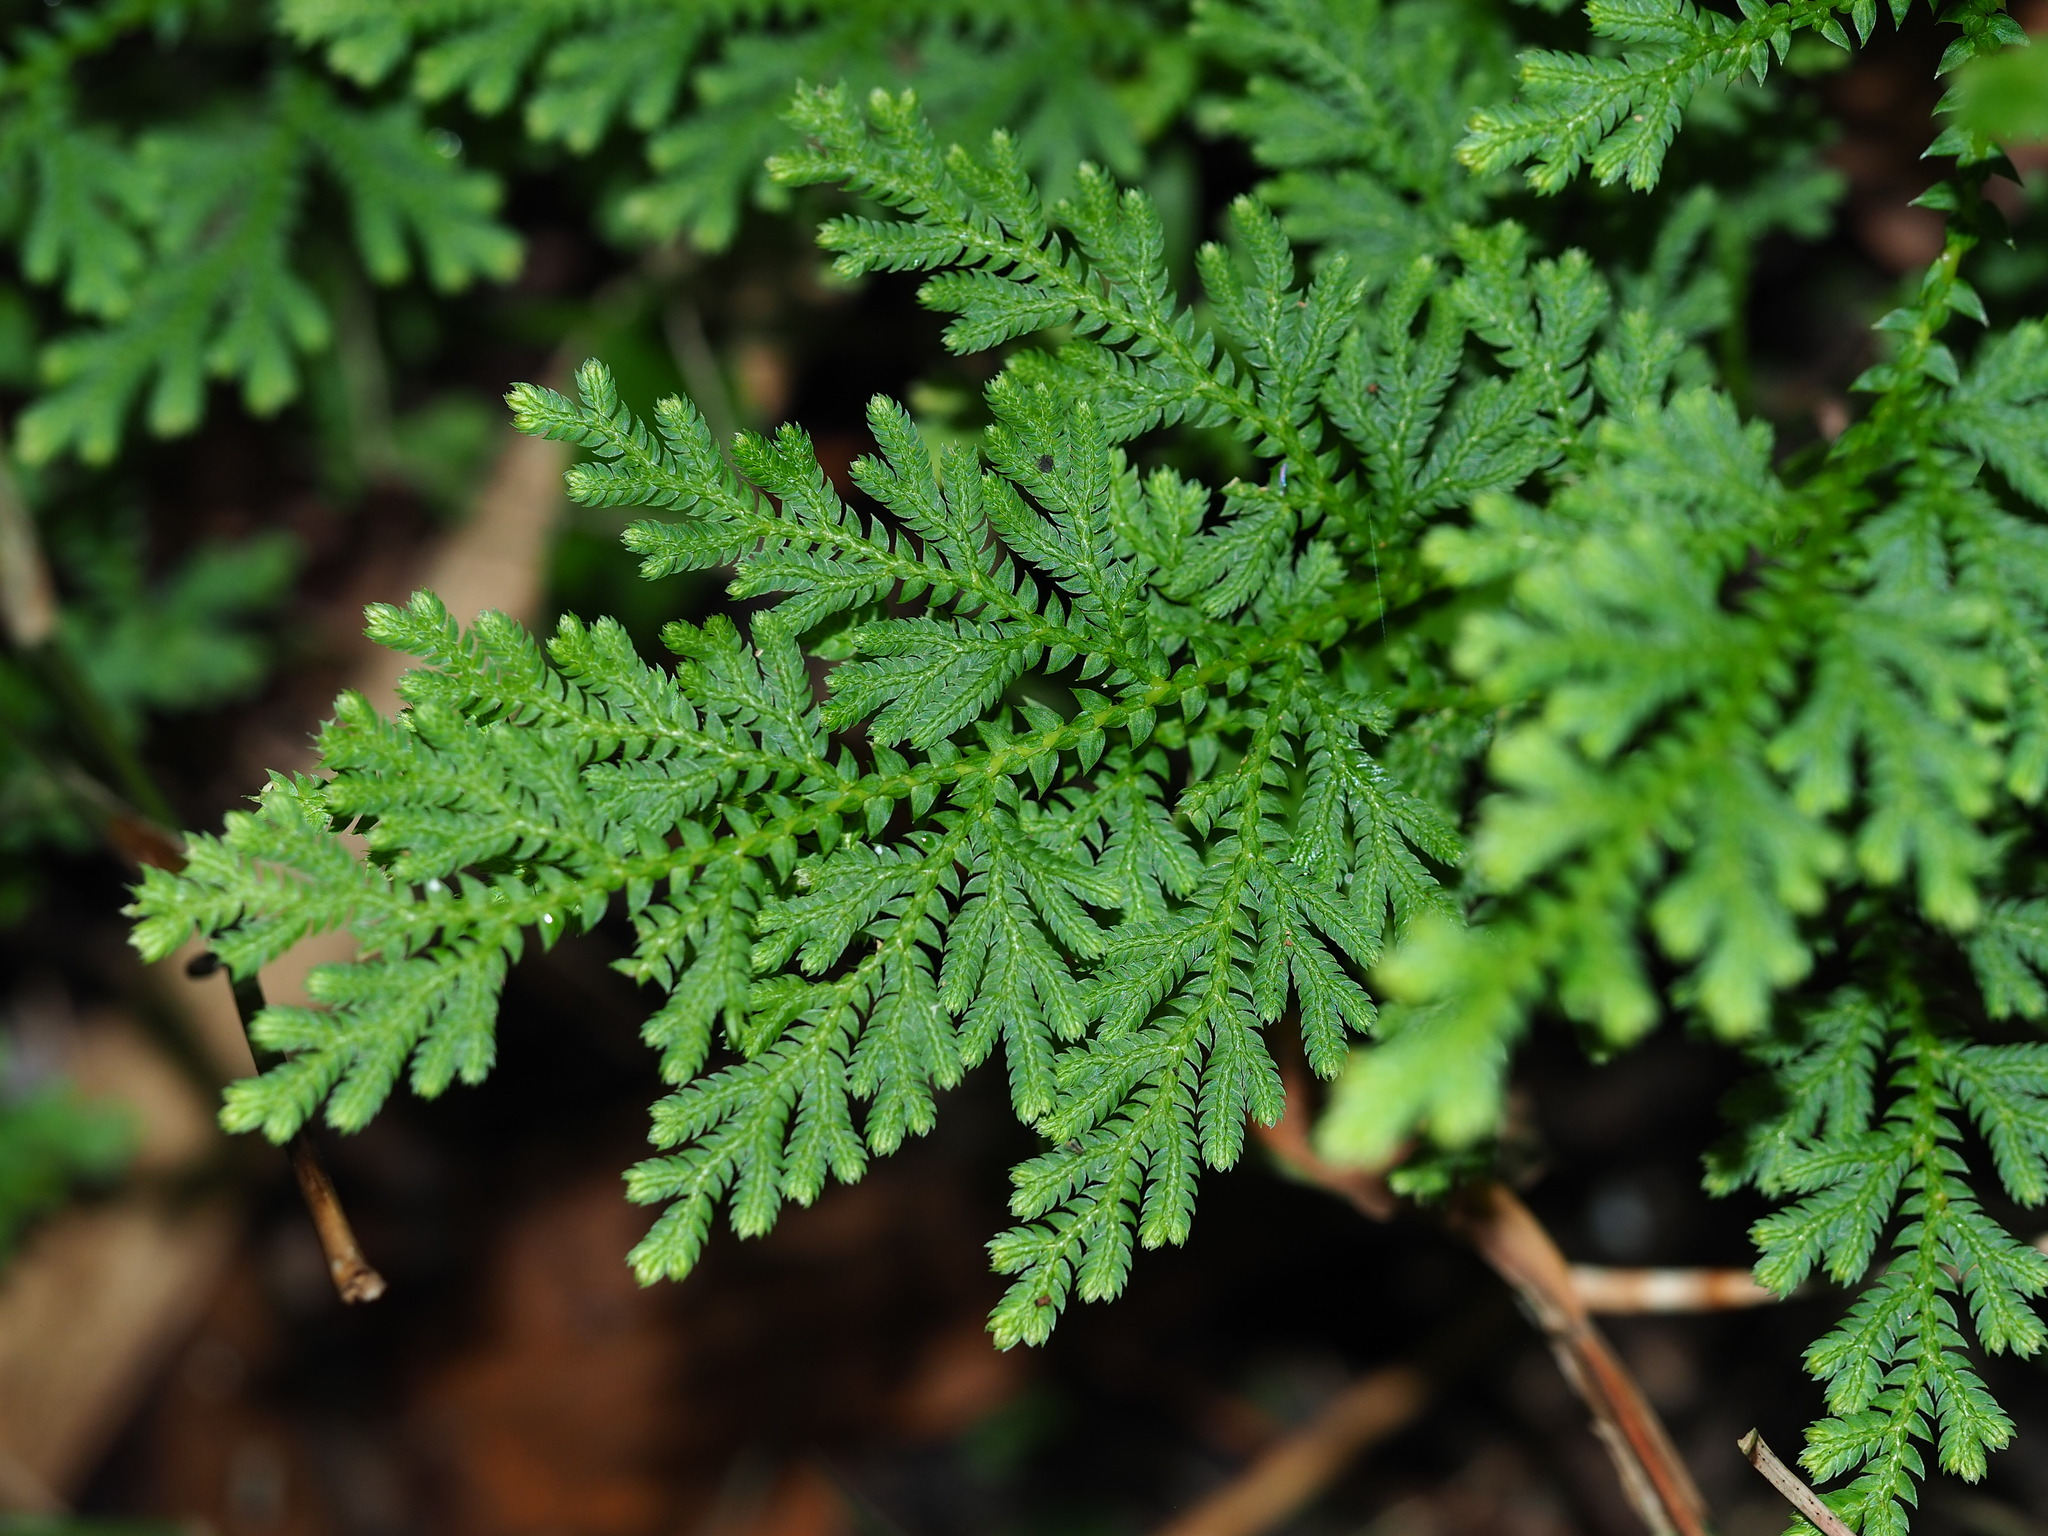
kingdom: Plantae
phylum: Tracheophyta
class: Lycopodiopsida
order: Selaginellales
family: Selaginellaceae
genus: Selaginella
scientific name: Selaginella moellendorffii
